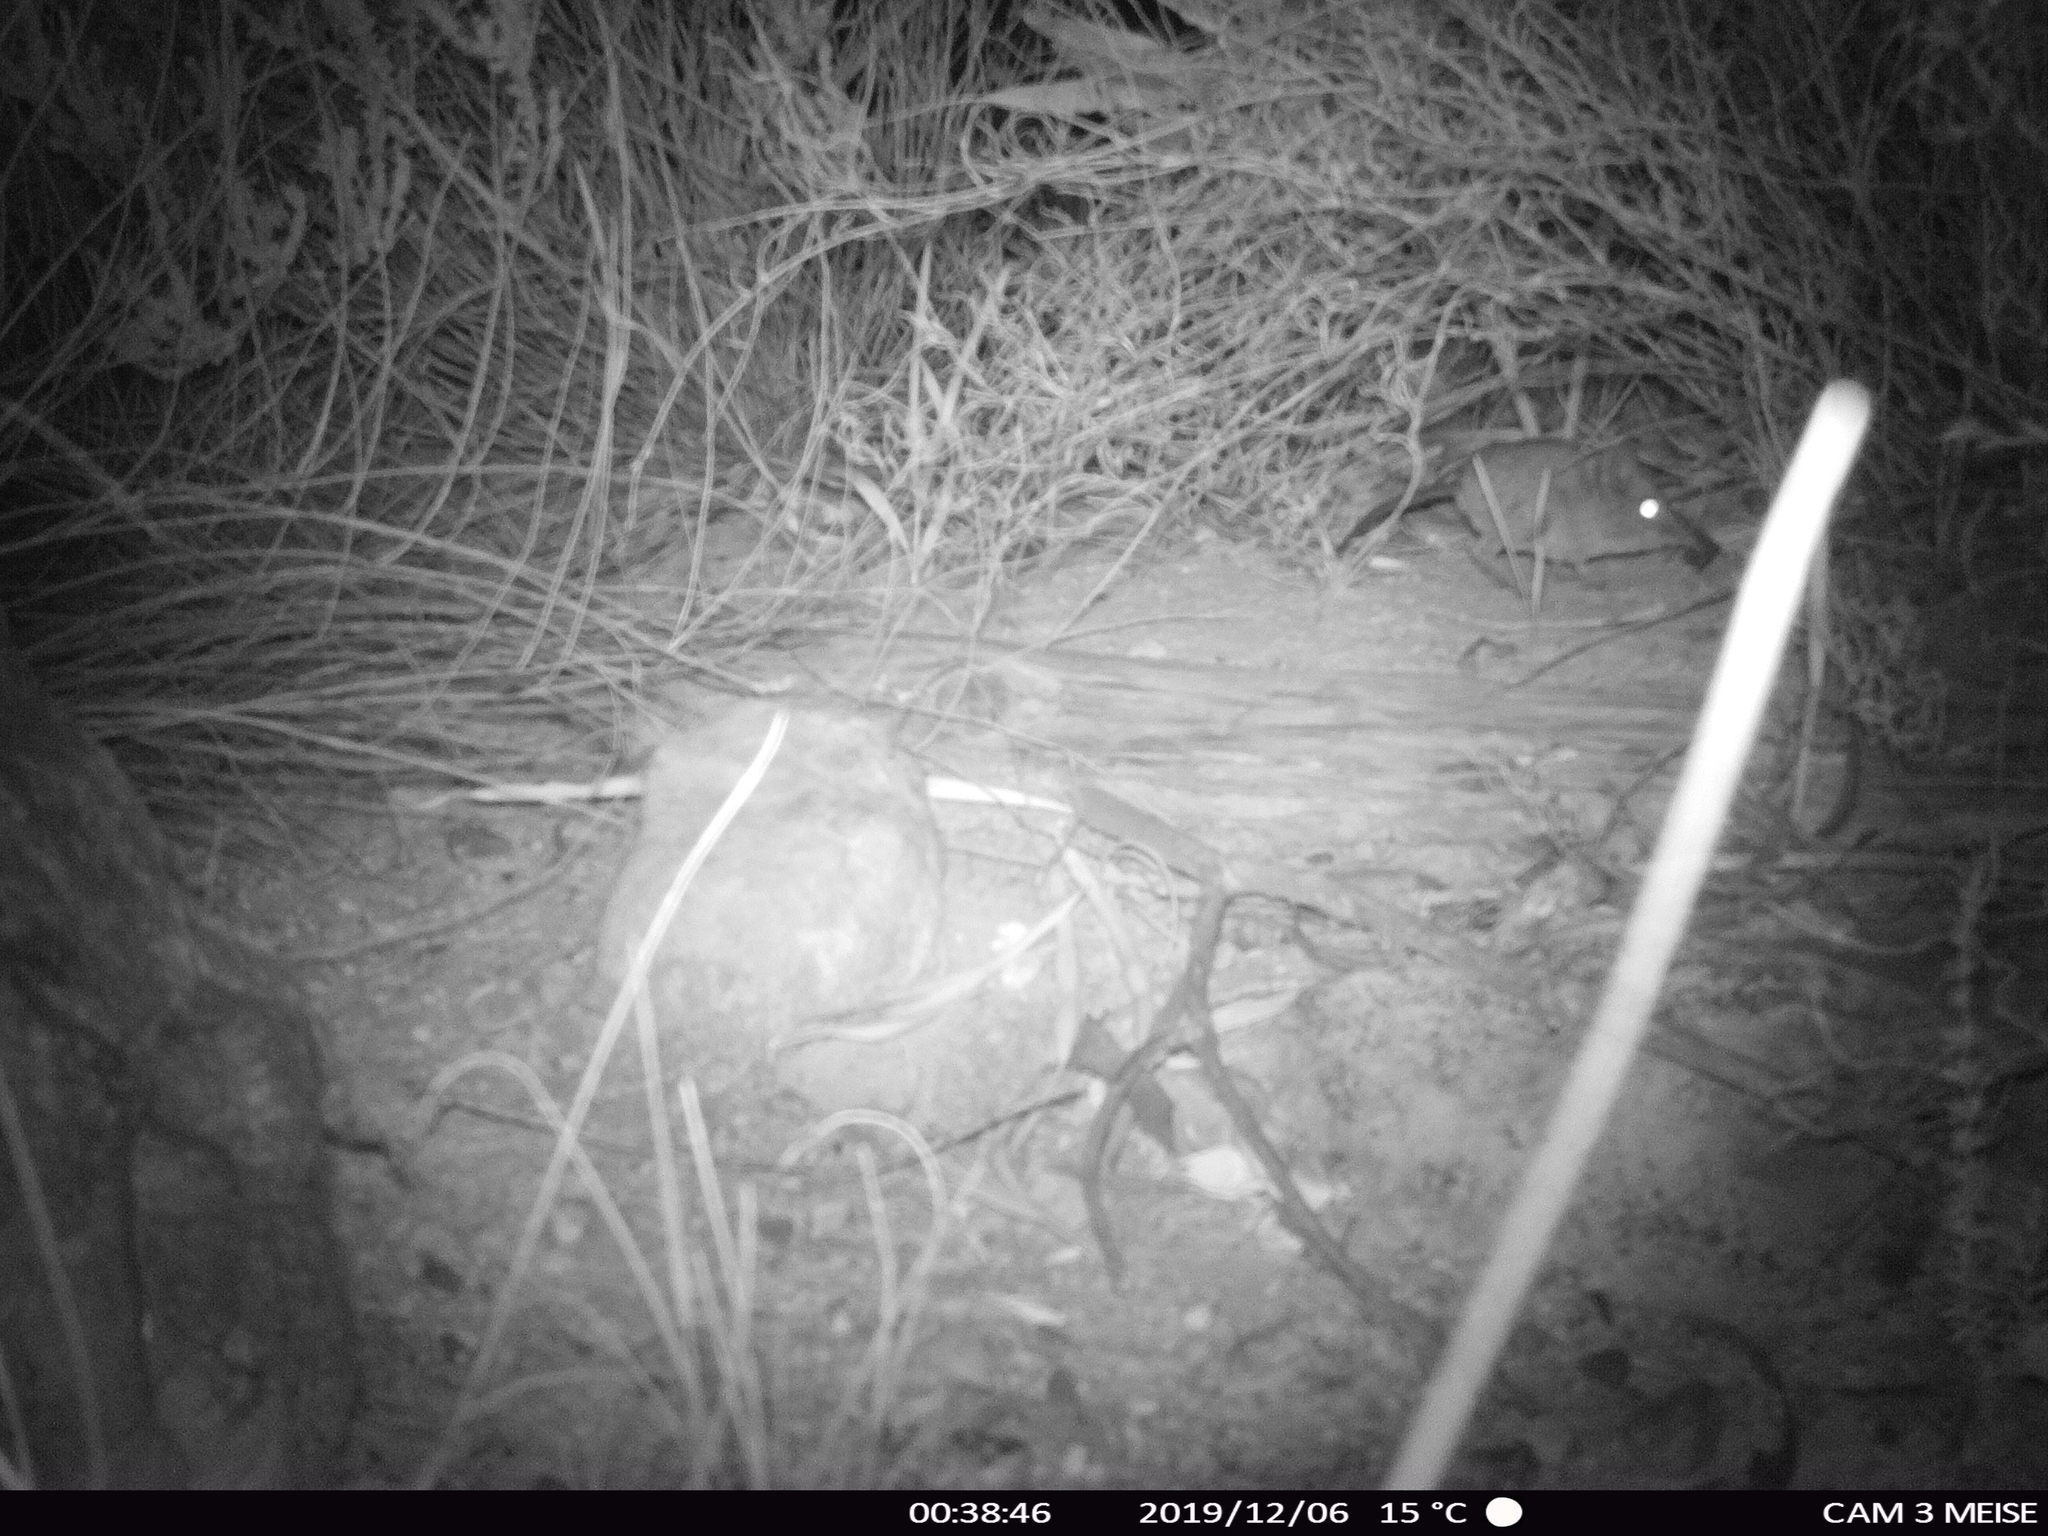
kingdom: Animalia
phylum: Chordata
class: Mammalia
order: Macroscelidea
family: Macroscelididae
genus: Elephantulus
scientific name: Elephantulus edwardii
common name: Cape elephant shrew
